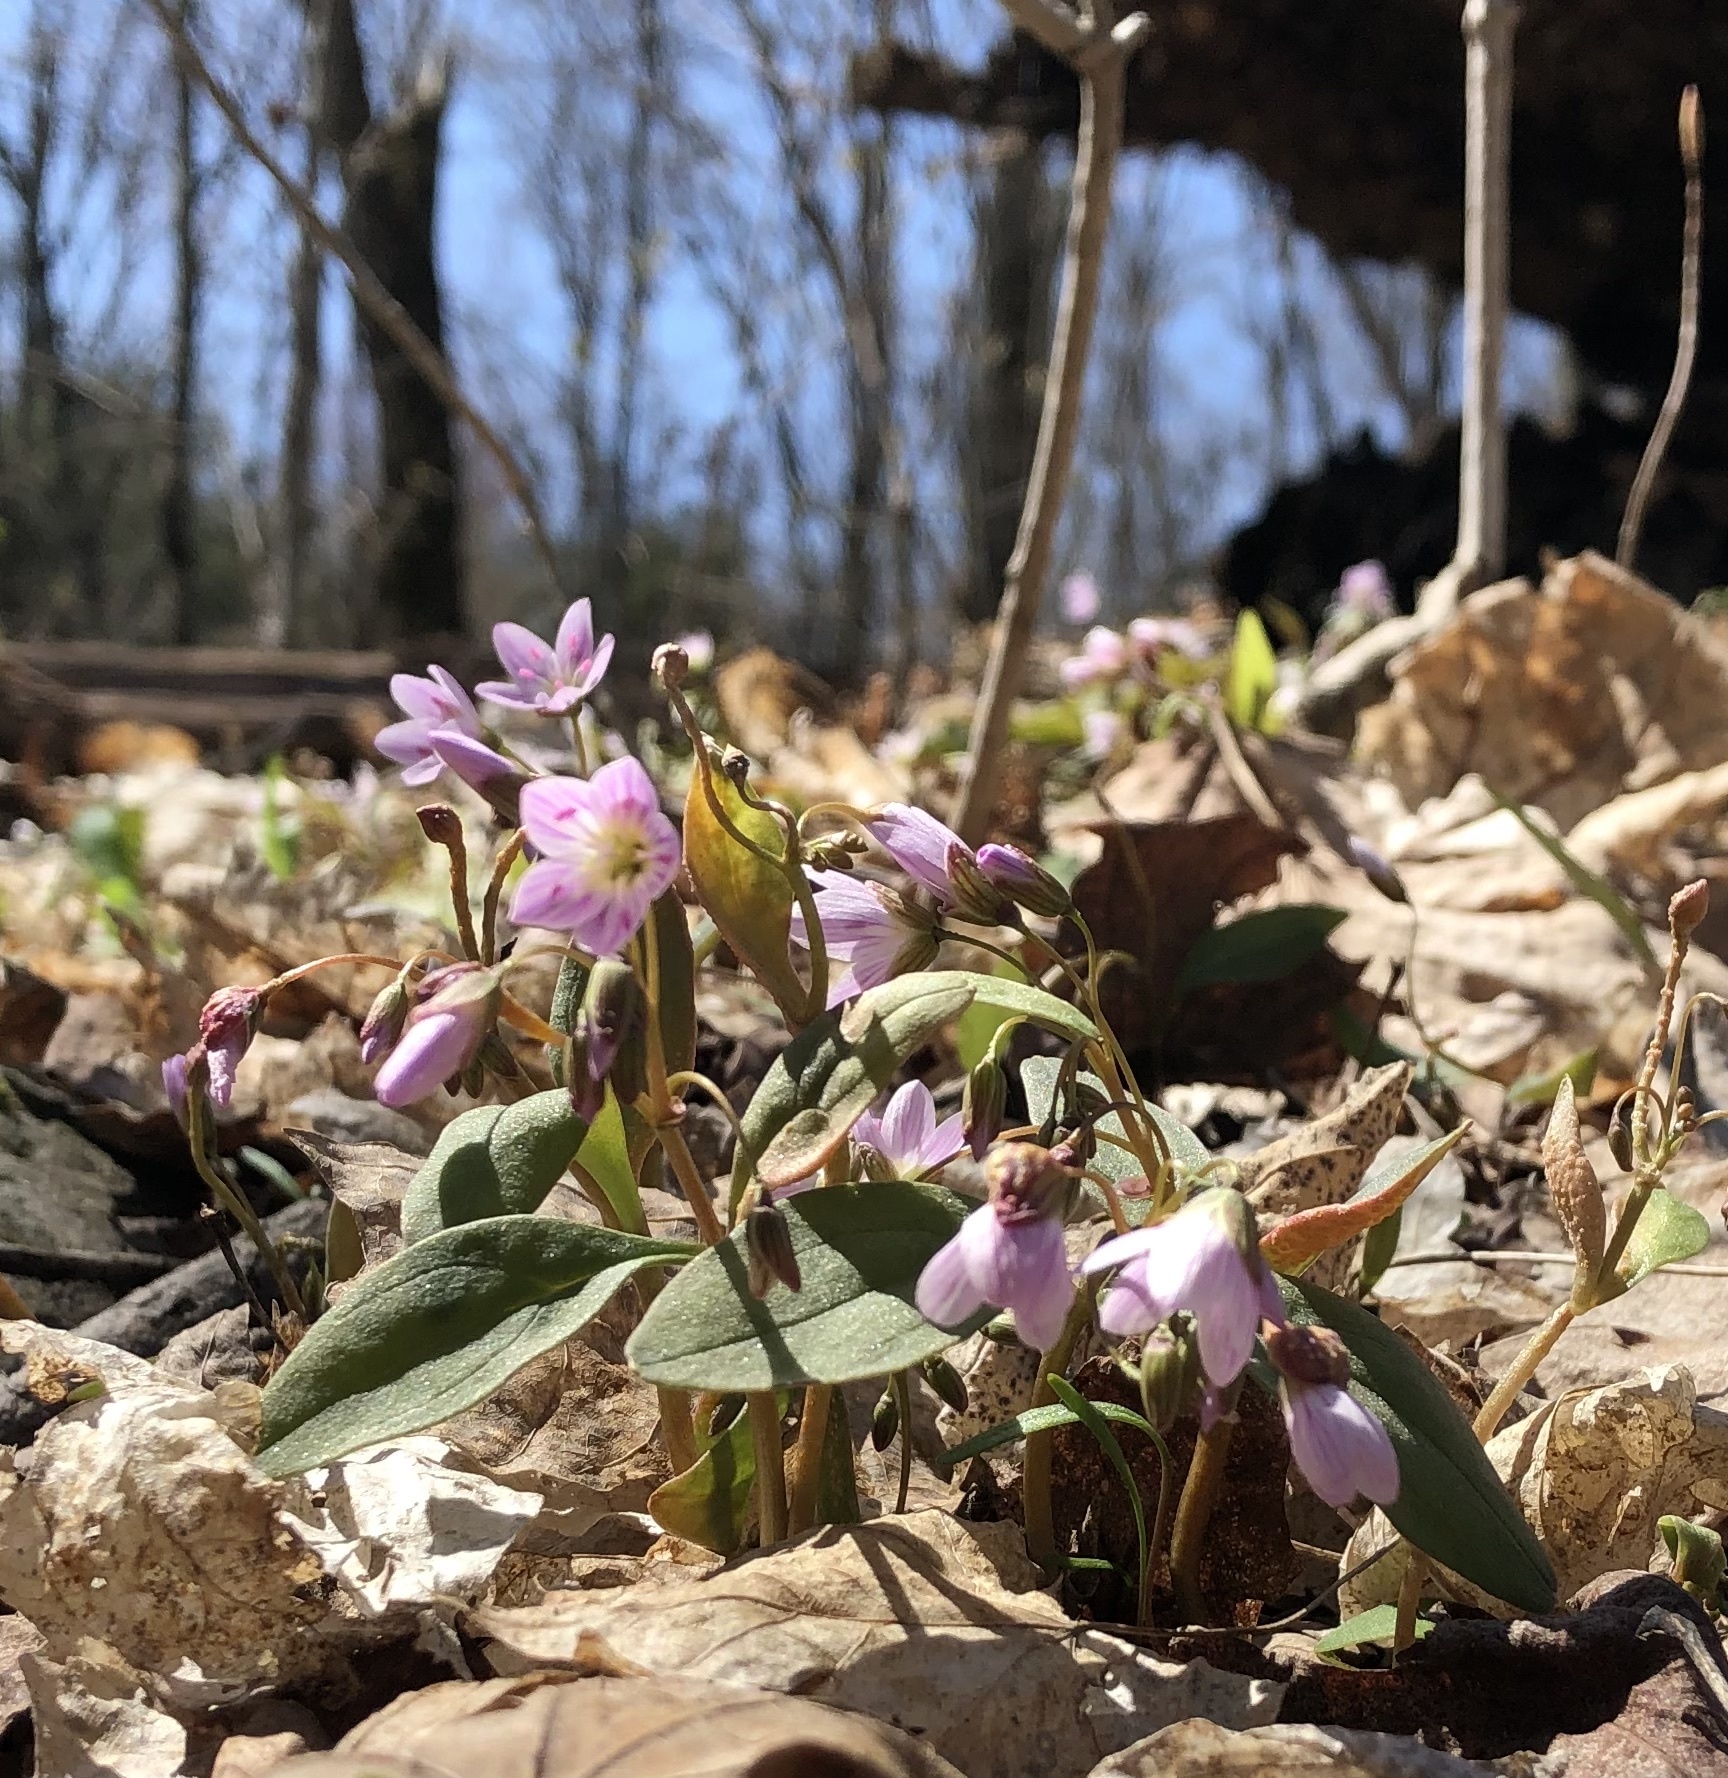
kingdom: Plantae
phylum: Tracheophyta
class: Magnoliopsida
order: Caryophyllales
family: Montiaceae
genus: Claytonia
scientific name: Claytonia caroliniana
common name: Carolina spring beauty
